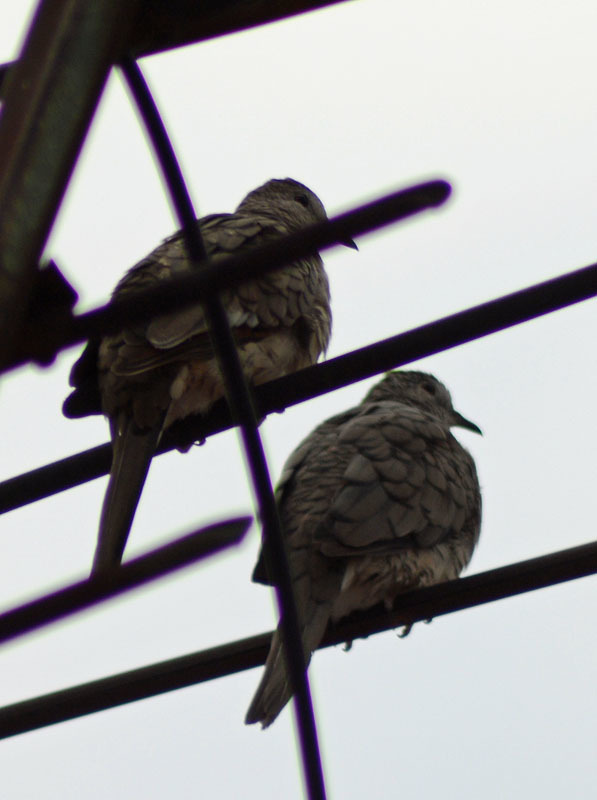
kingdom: Animalia
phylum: Chordata
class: Aves
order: Columbiformes
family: Columbidae
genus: Columbina
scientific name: Columbina inca
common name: Inca dove
